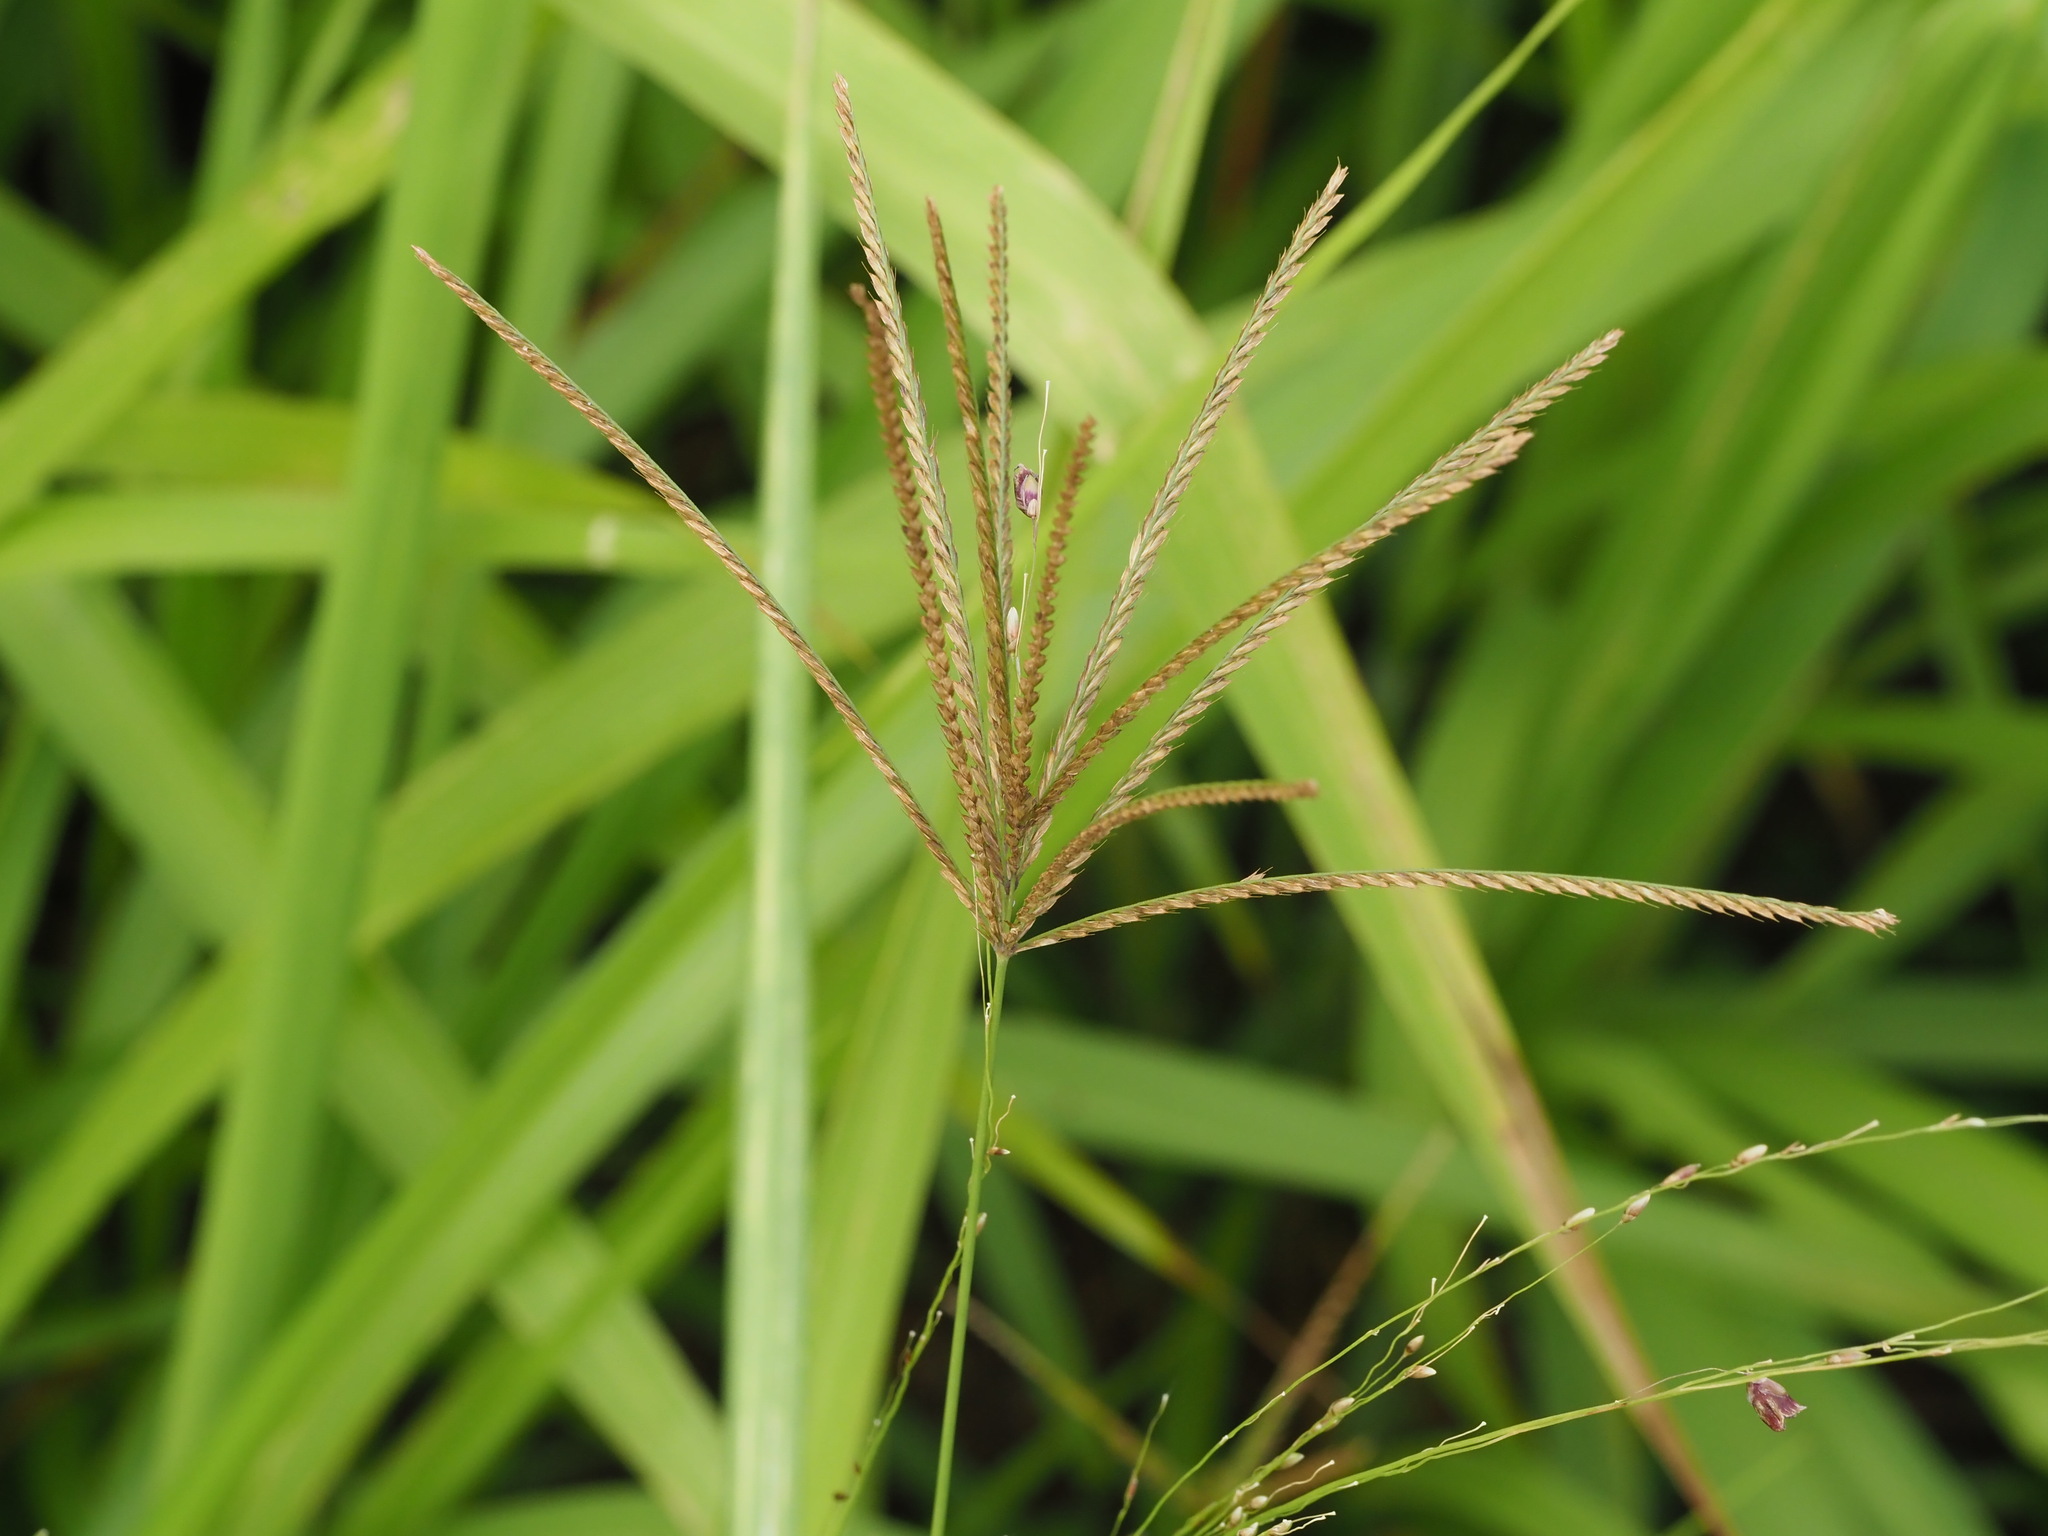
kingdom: Plantae
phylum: Tracheophyta
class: Liliopsida
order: Poales
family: Poaceae
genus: Chloris
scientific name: Chloris gayana
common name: Rhodes grass
